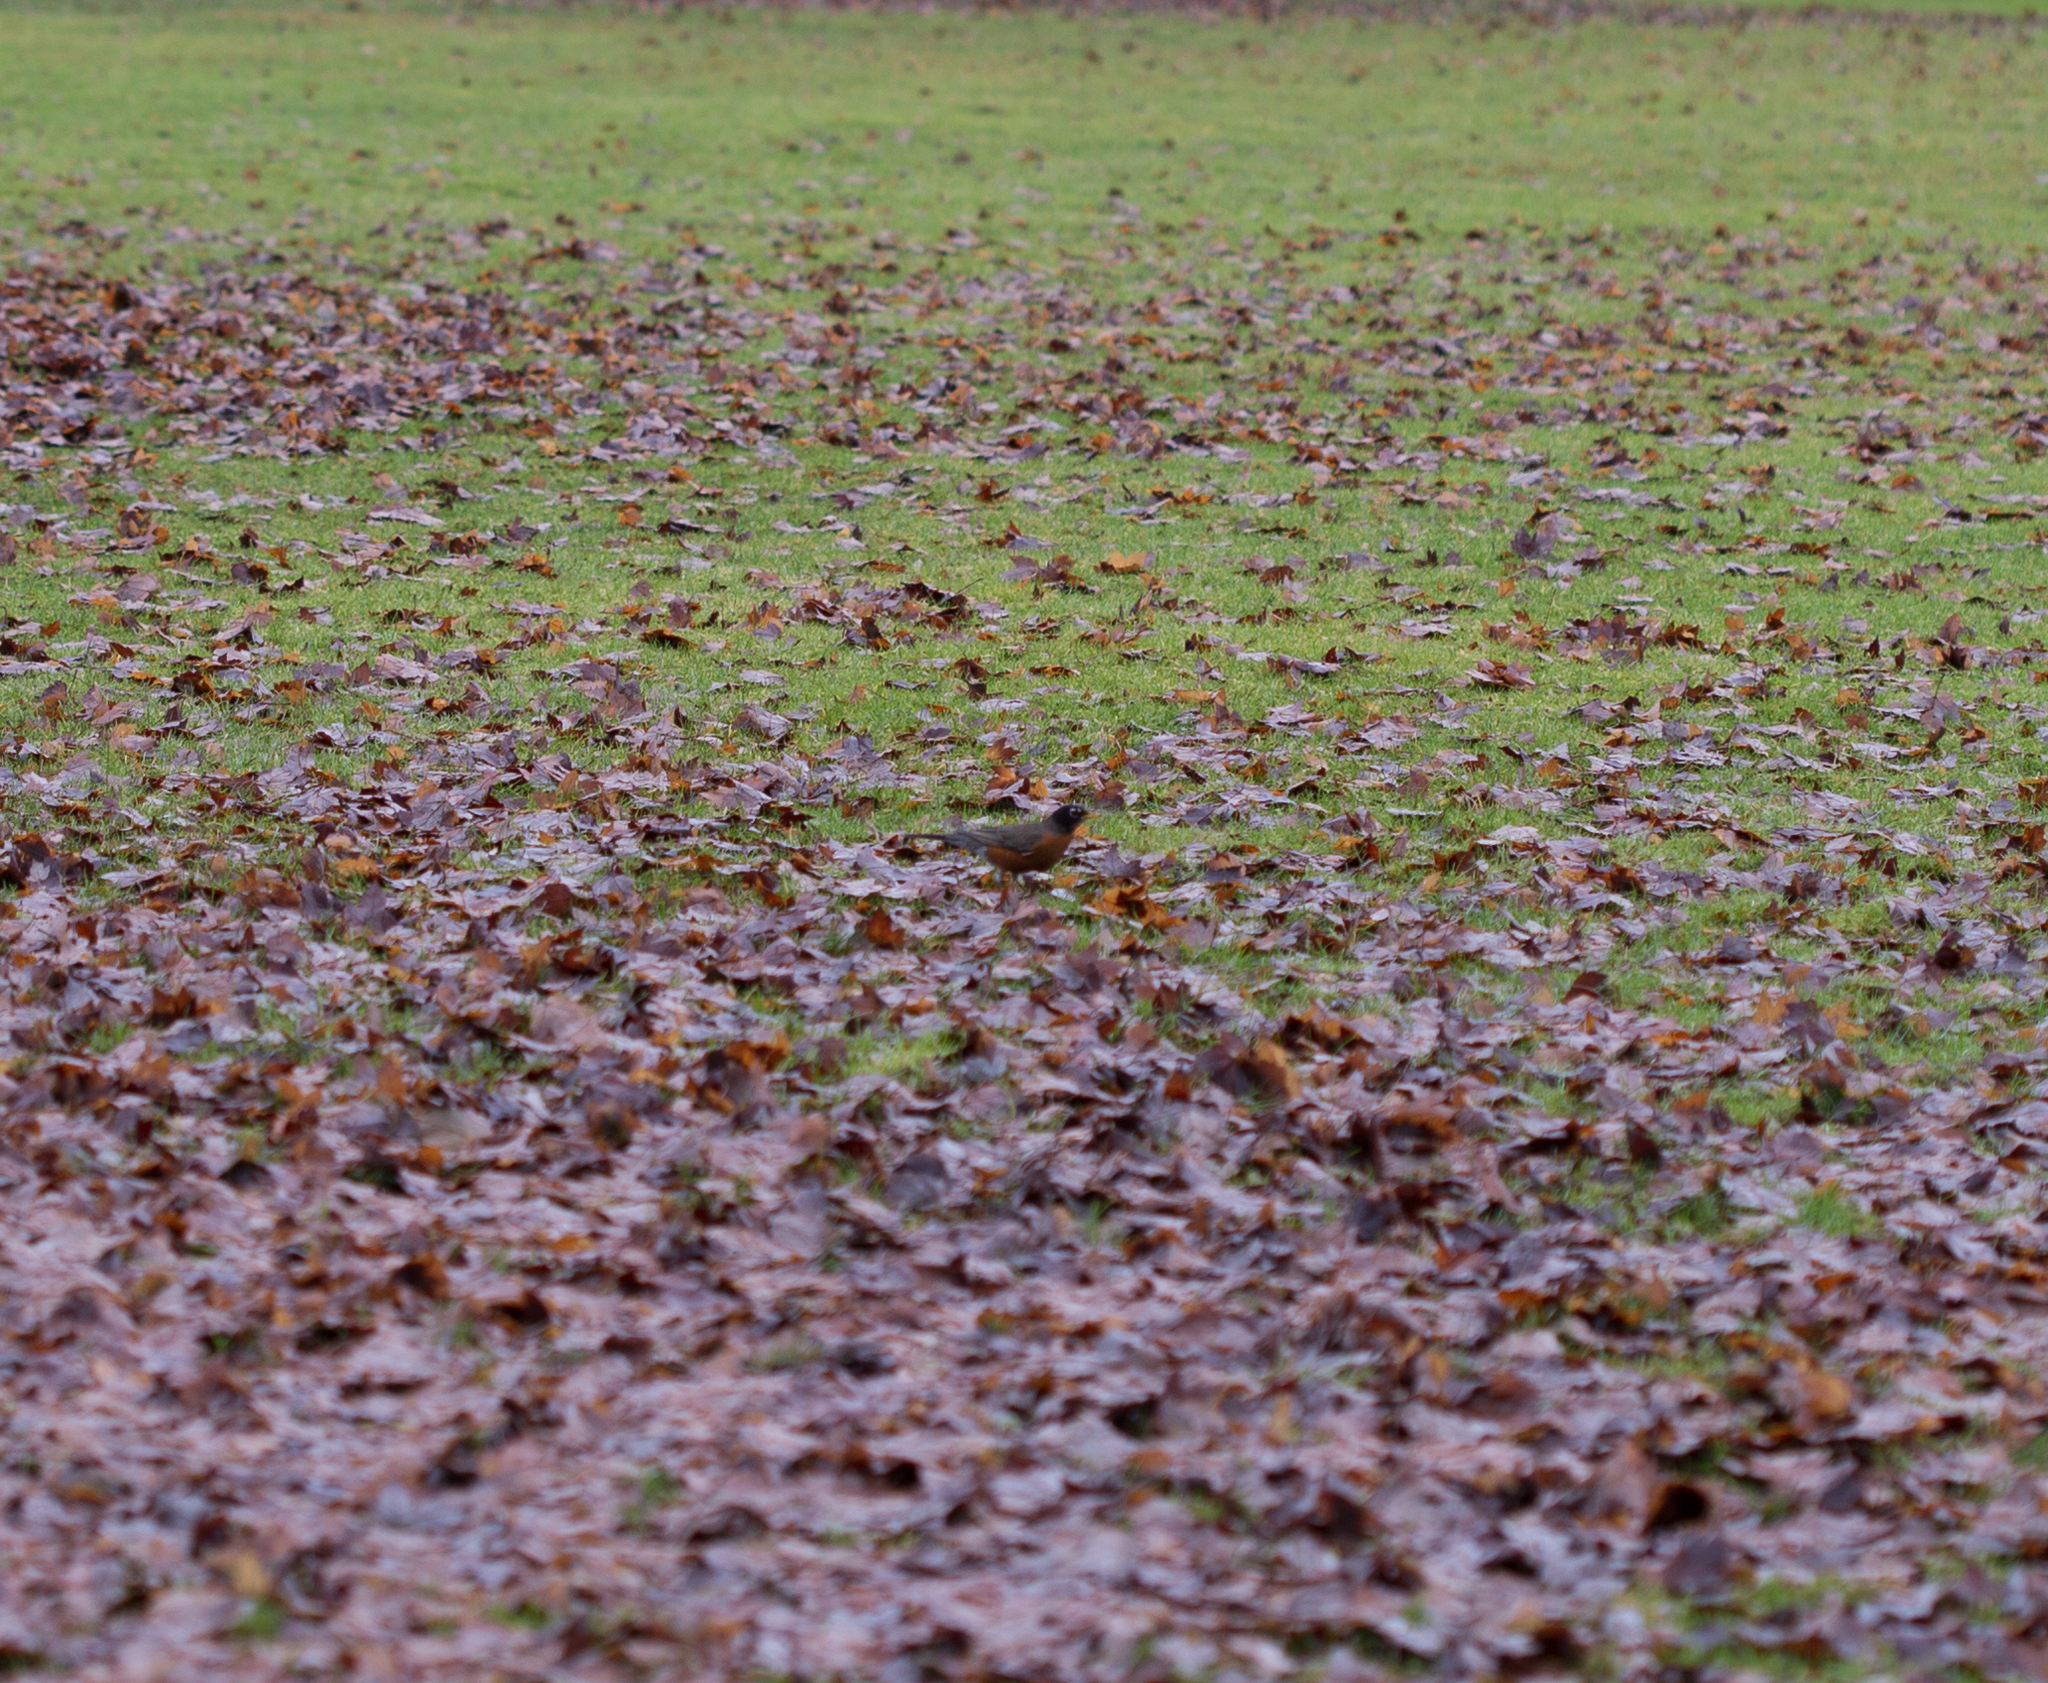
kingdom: Animalia
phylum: Chordata
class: Aves
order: Passeriformes
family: Turdidae
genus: Turdus
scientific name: Turdus migratorius
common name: American robin
